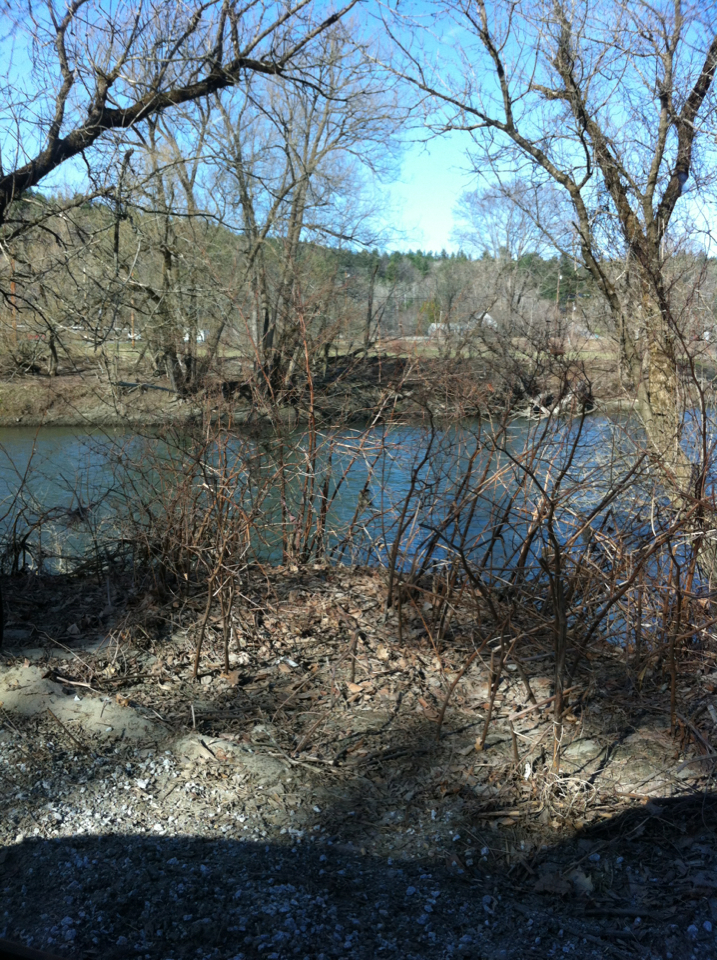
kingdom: Plantae
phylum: Tracheophyta
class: Magnoliopsida
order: Caryophyllales
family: Polygonaceae
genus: Reynoutria
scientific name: Reynoutria japonica
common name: Japanese knotweed
